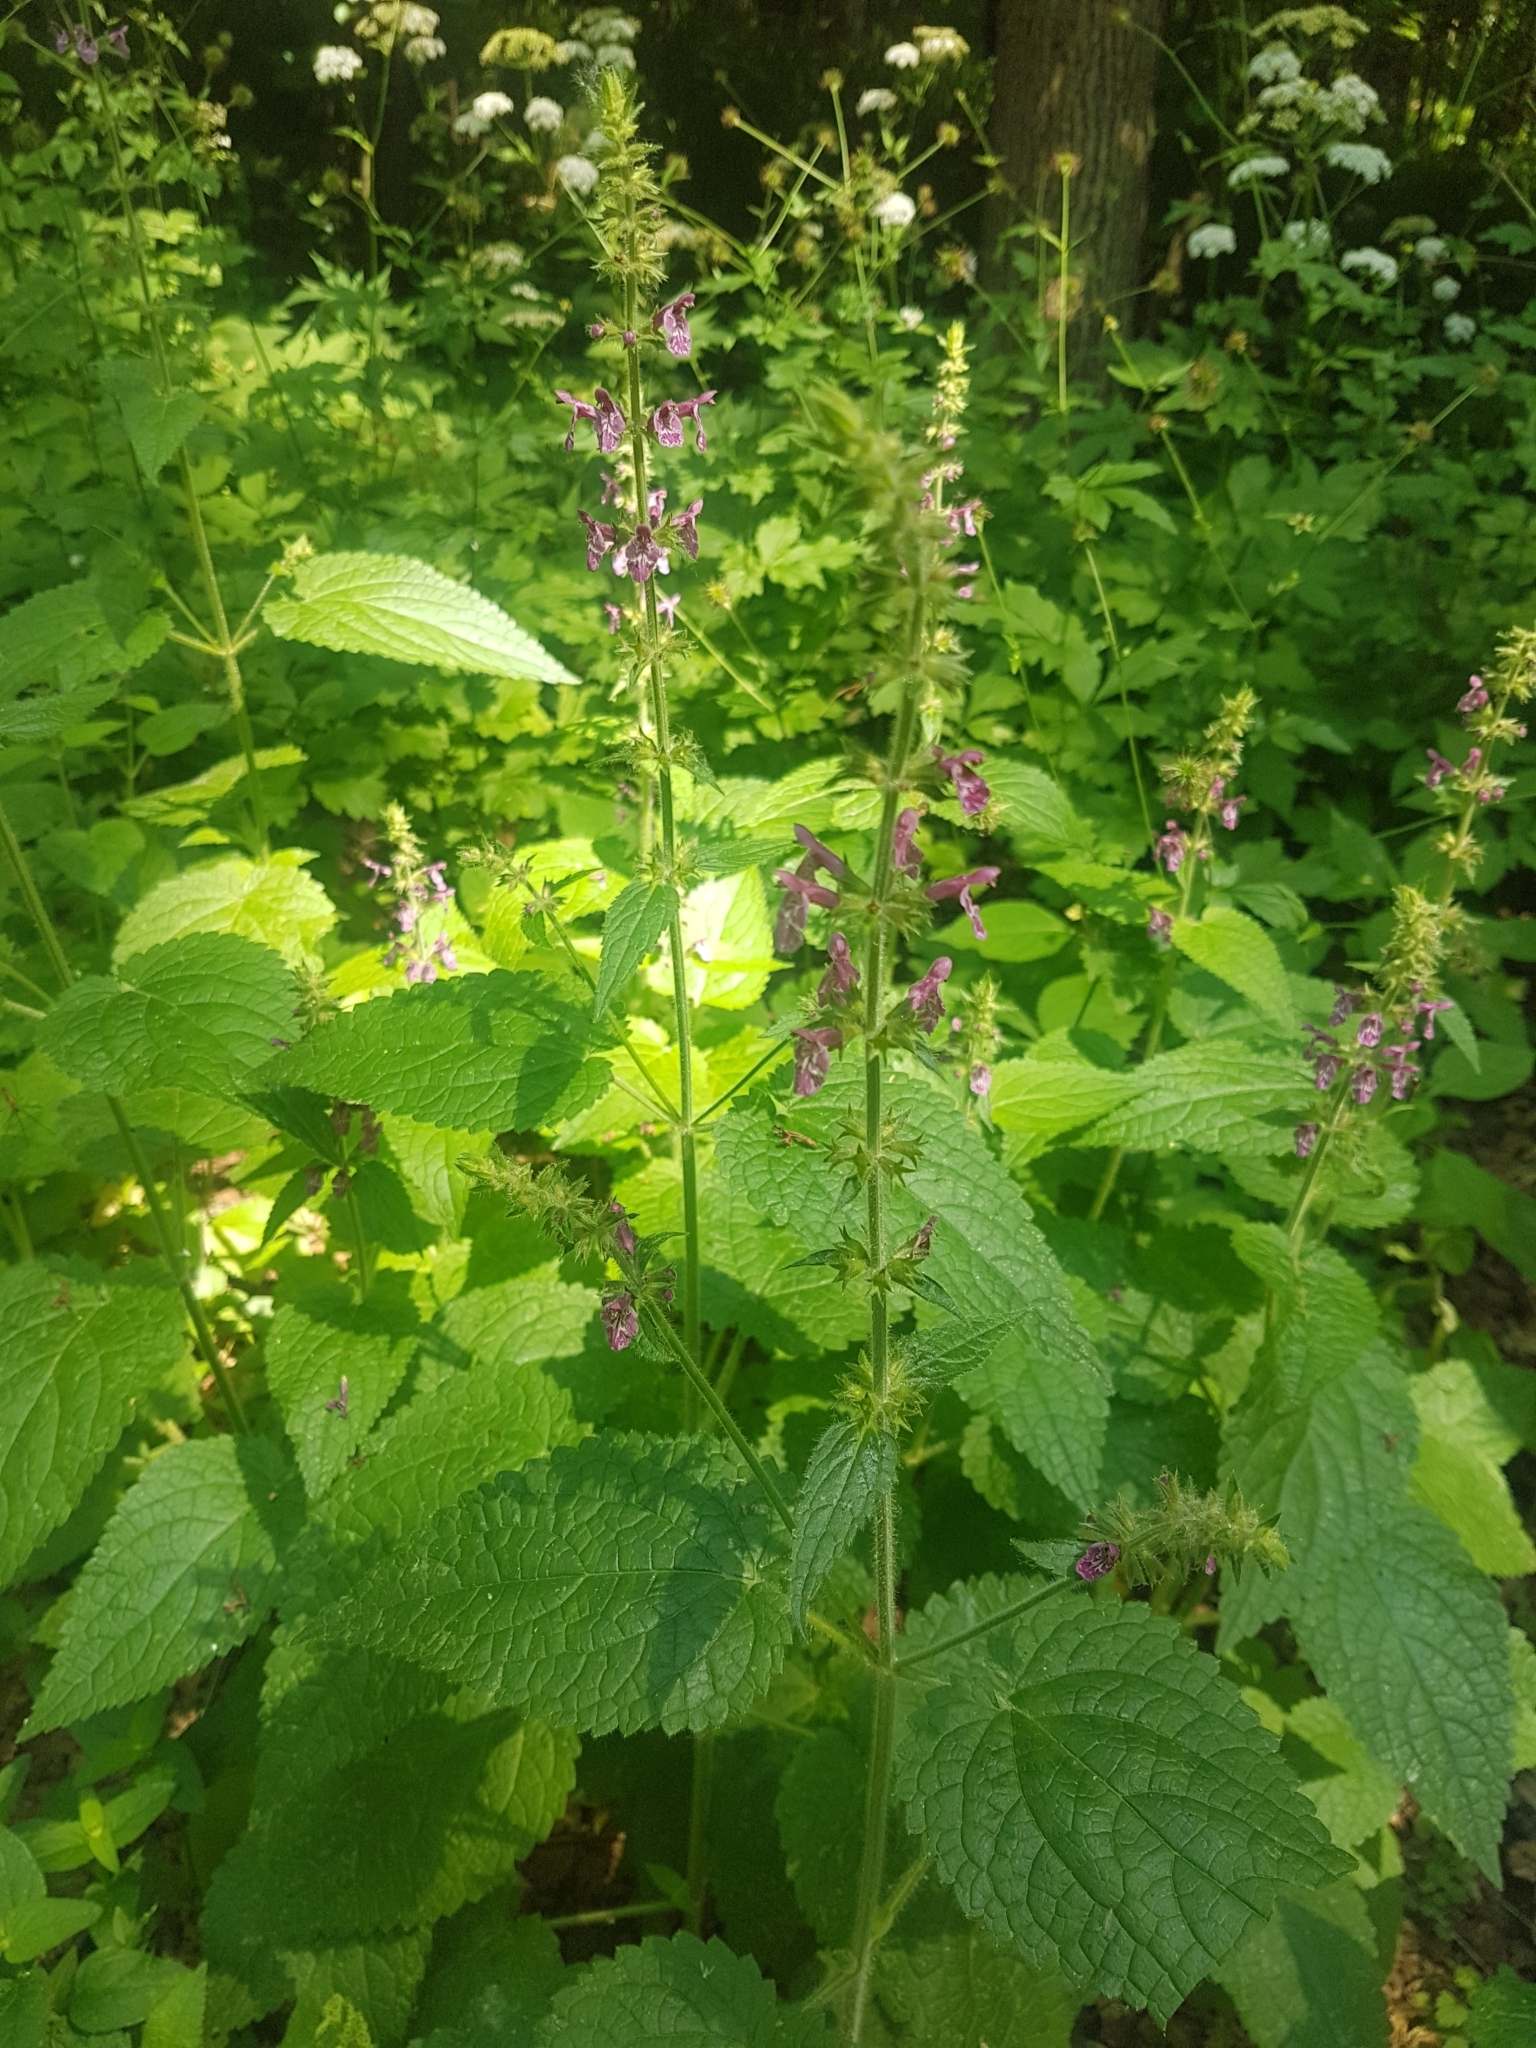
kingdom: Plantae
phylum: Tracheophyta
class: Magnoliopsida
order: Lamiales
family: Lamiaceae
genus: Stachys
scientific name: Stachys sylvatica
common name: Hedge woundwort
